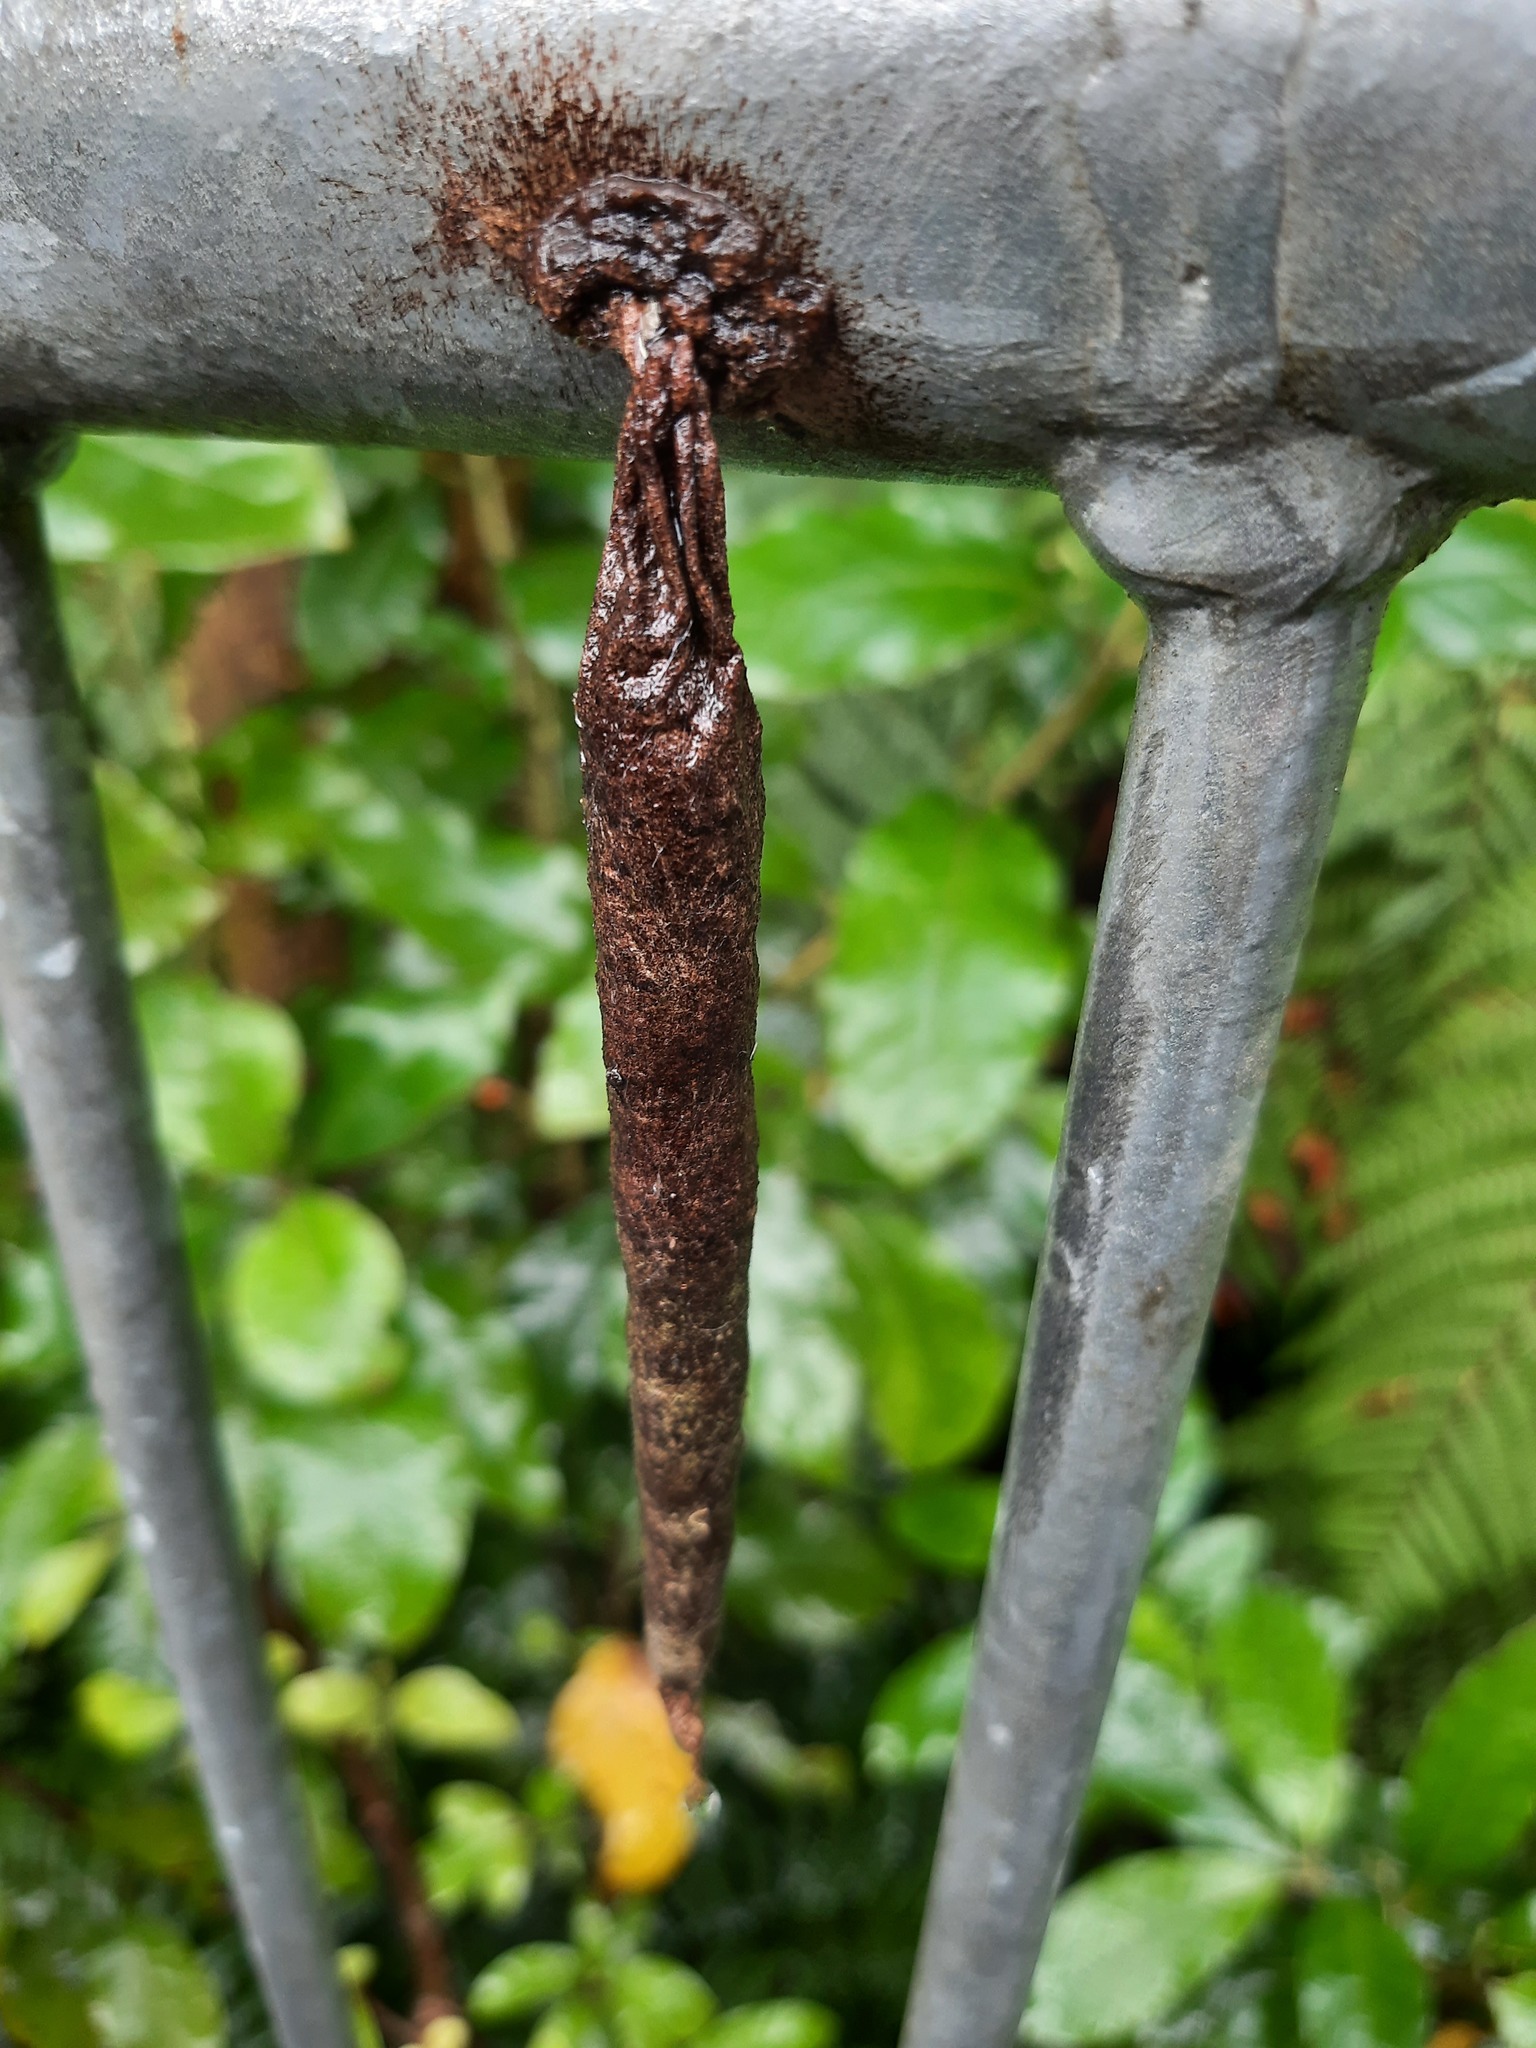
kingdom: Animalia
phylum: Arthropoda
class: Insecta
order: Lepidoptera
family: Psychidae
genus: Liothula
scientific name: Liothula omnivora
